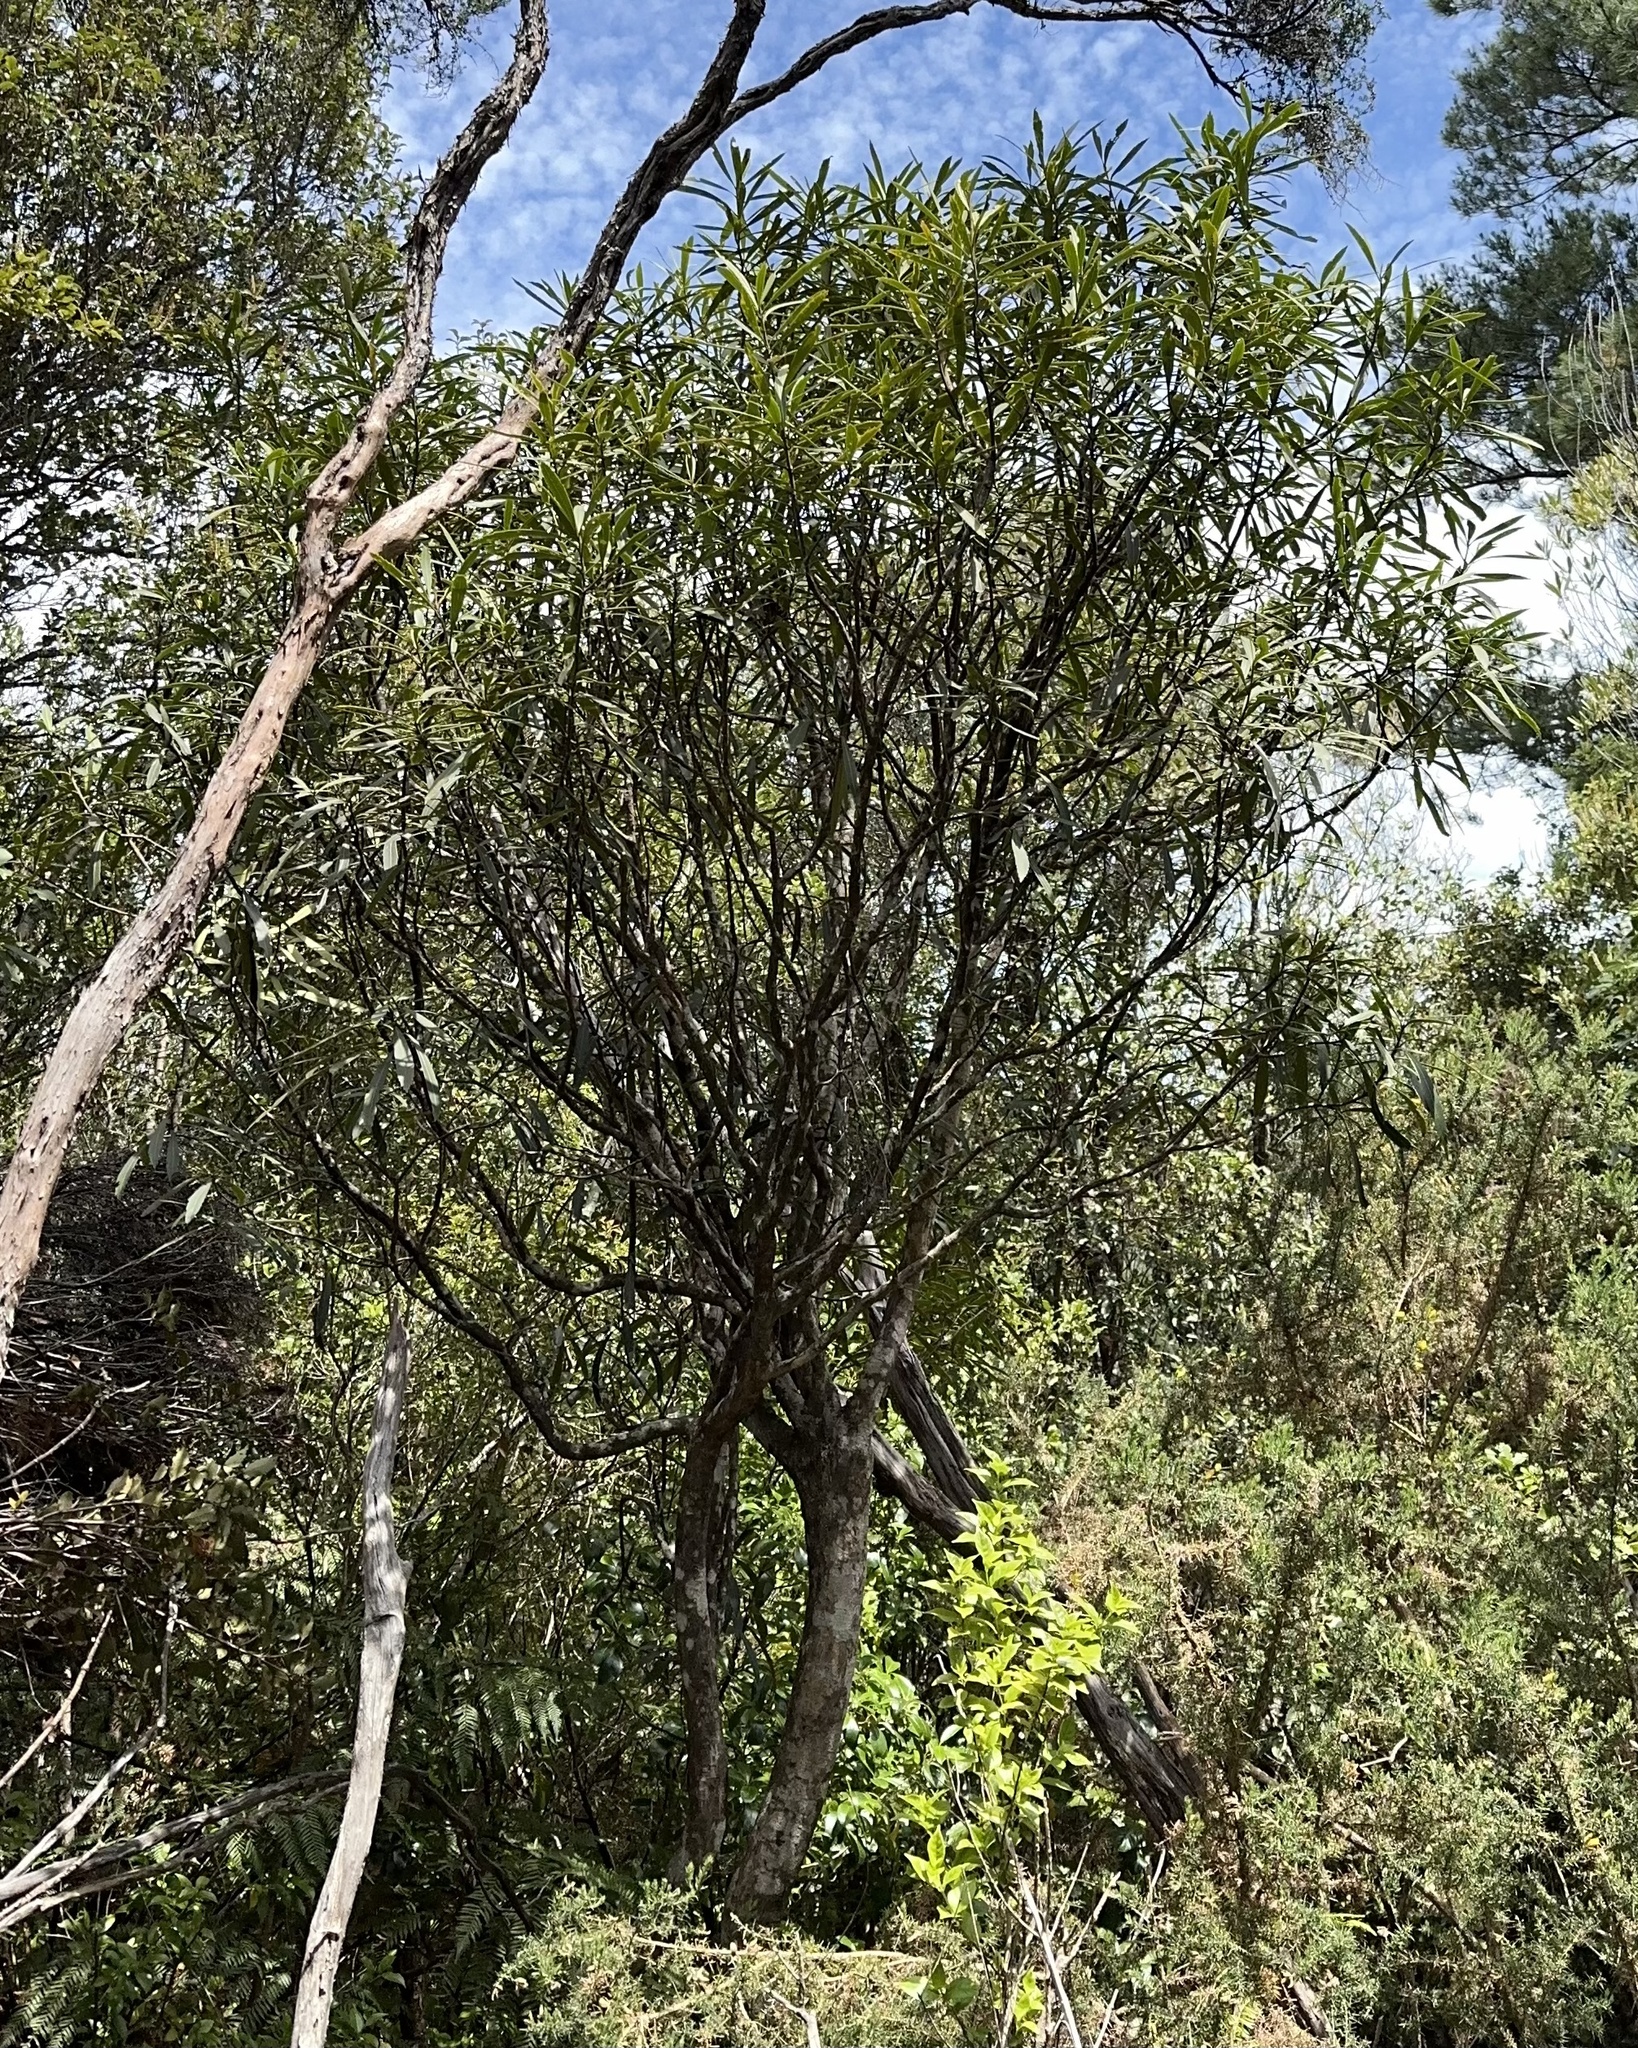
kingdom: Plantae
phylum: Tracheophyta
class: Magnoliopsida
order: Apiales
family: Araliaceae
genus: Pseudopanax
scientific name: Pseudopanax crassifolius
